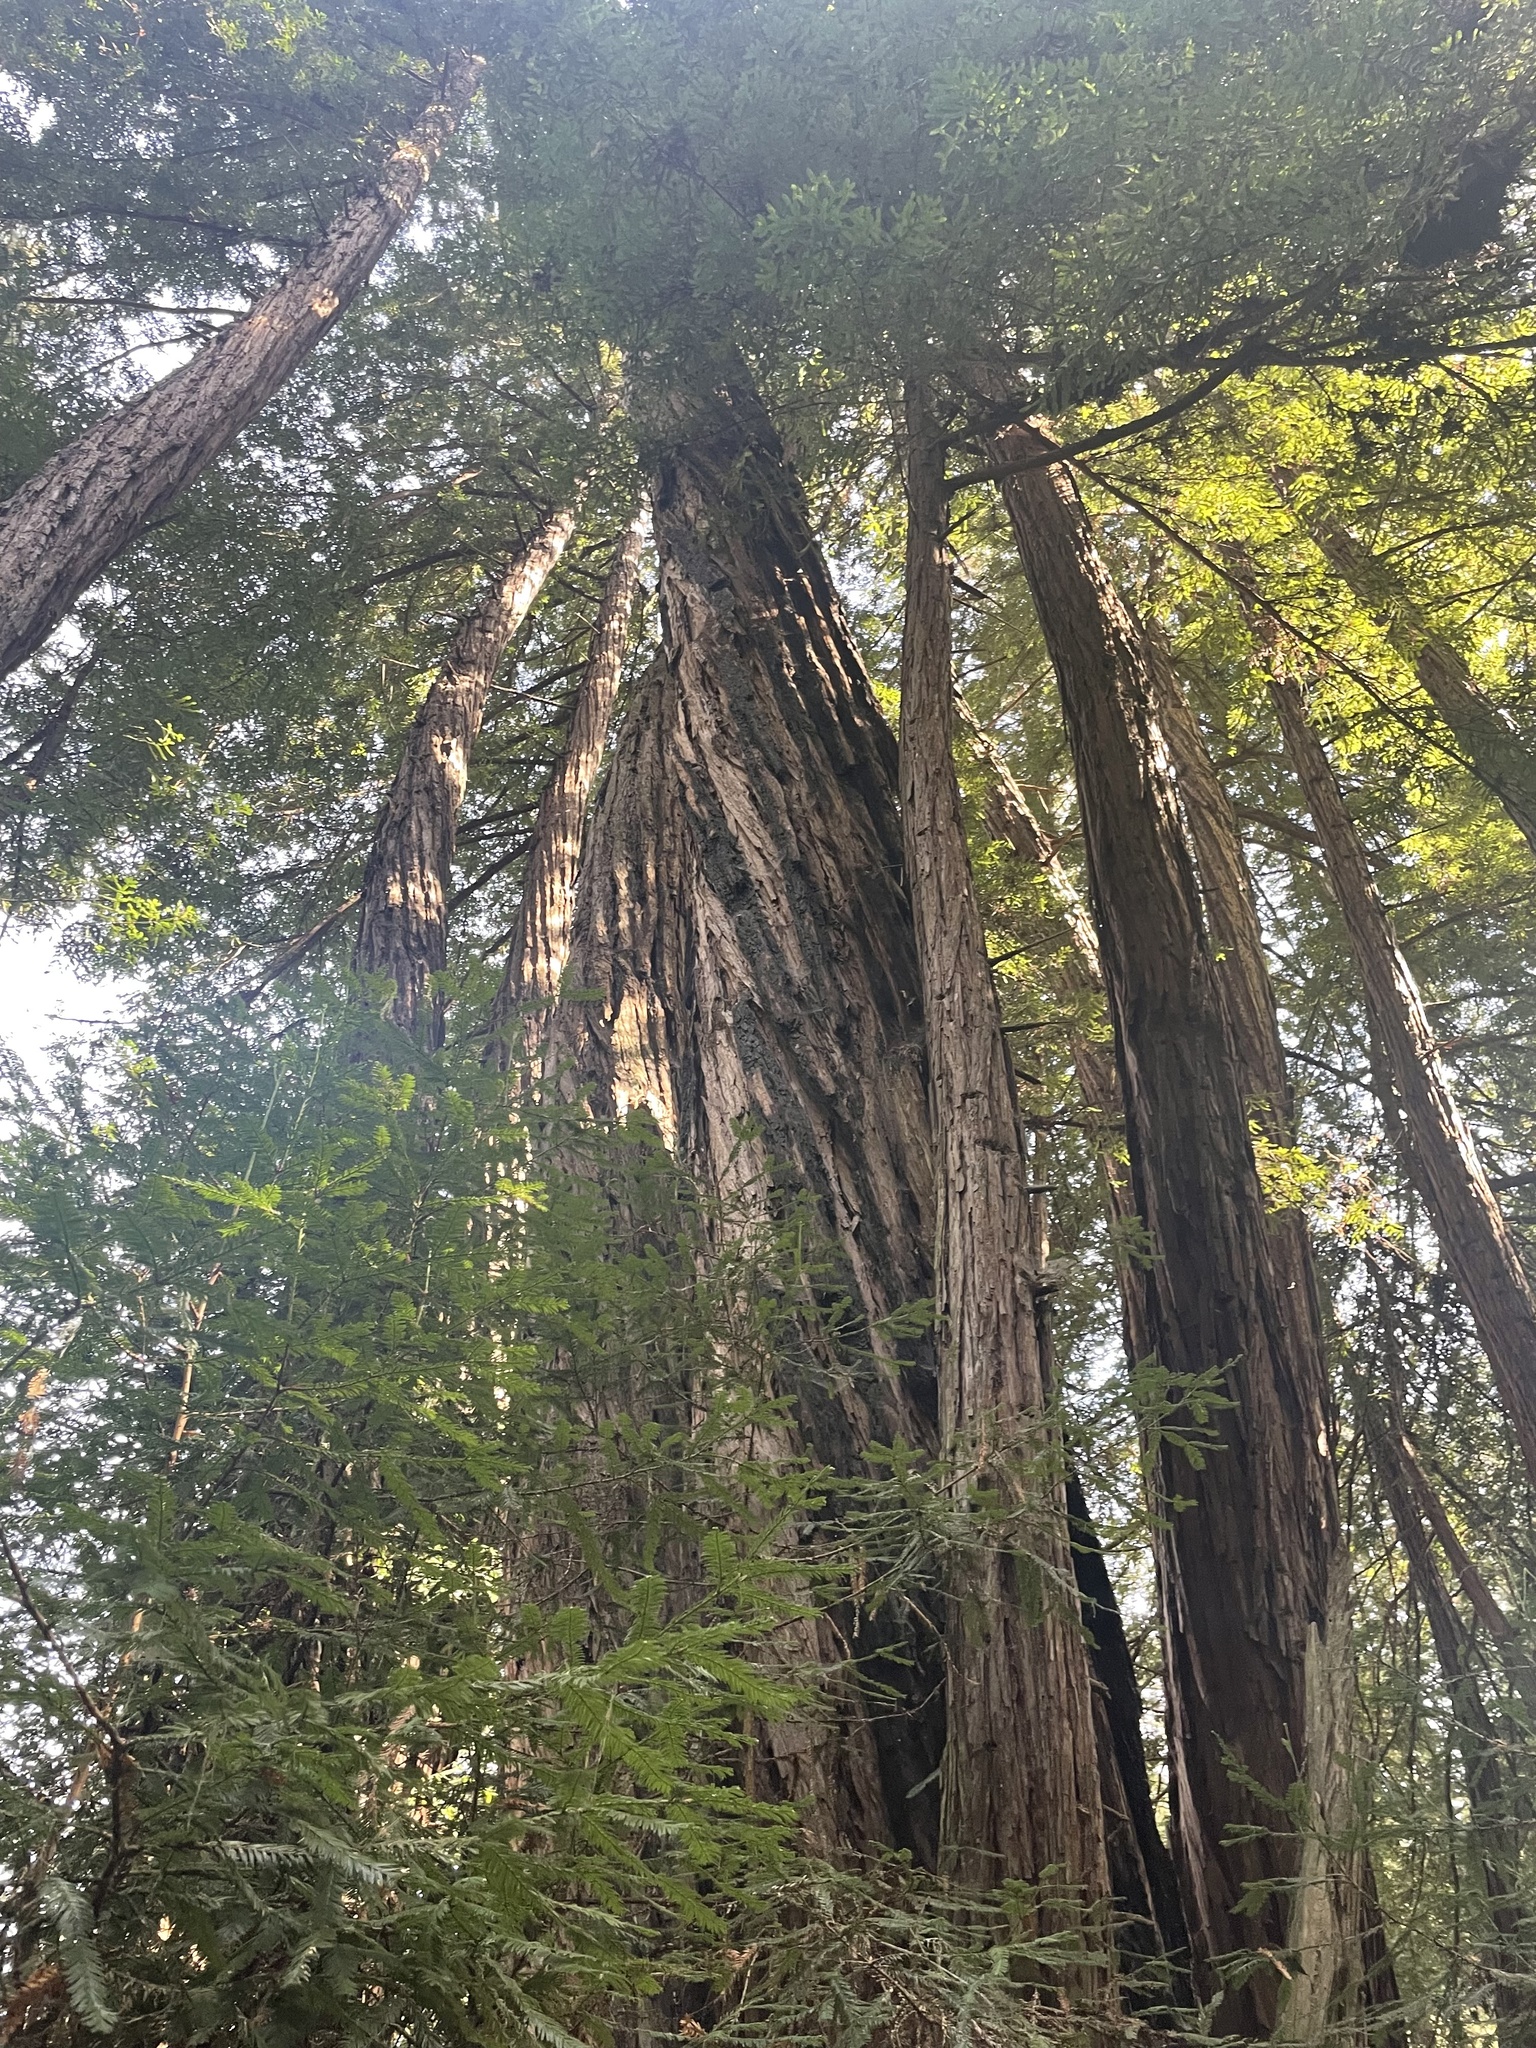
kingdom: Plantae
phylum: Tracheophyta
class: Pinopsida
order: Pinales
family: Cupressaceae
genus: Sequoia
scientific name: Sequoia sempervirens
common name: Coast redwood
